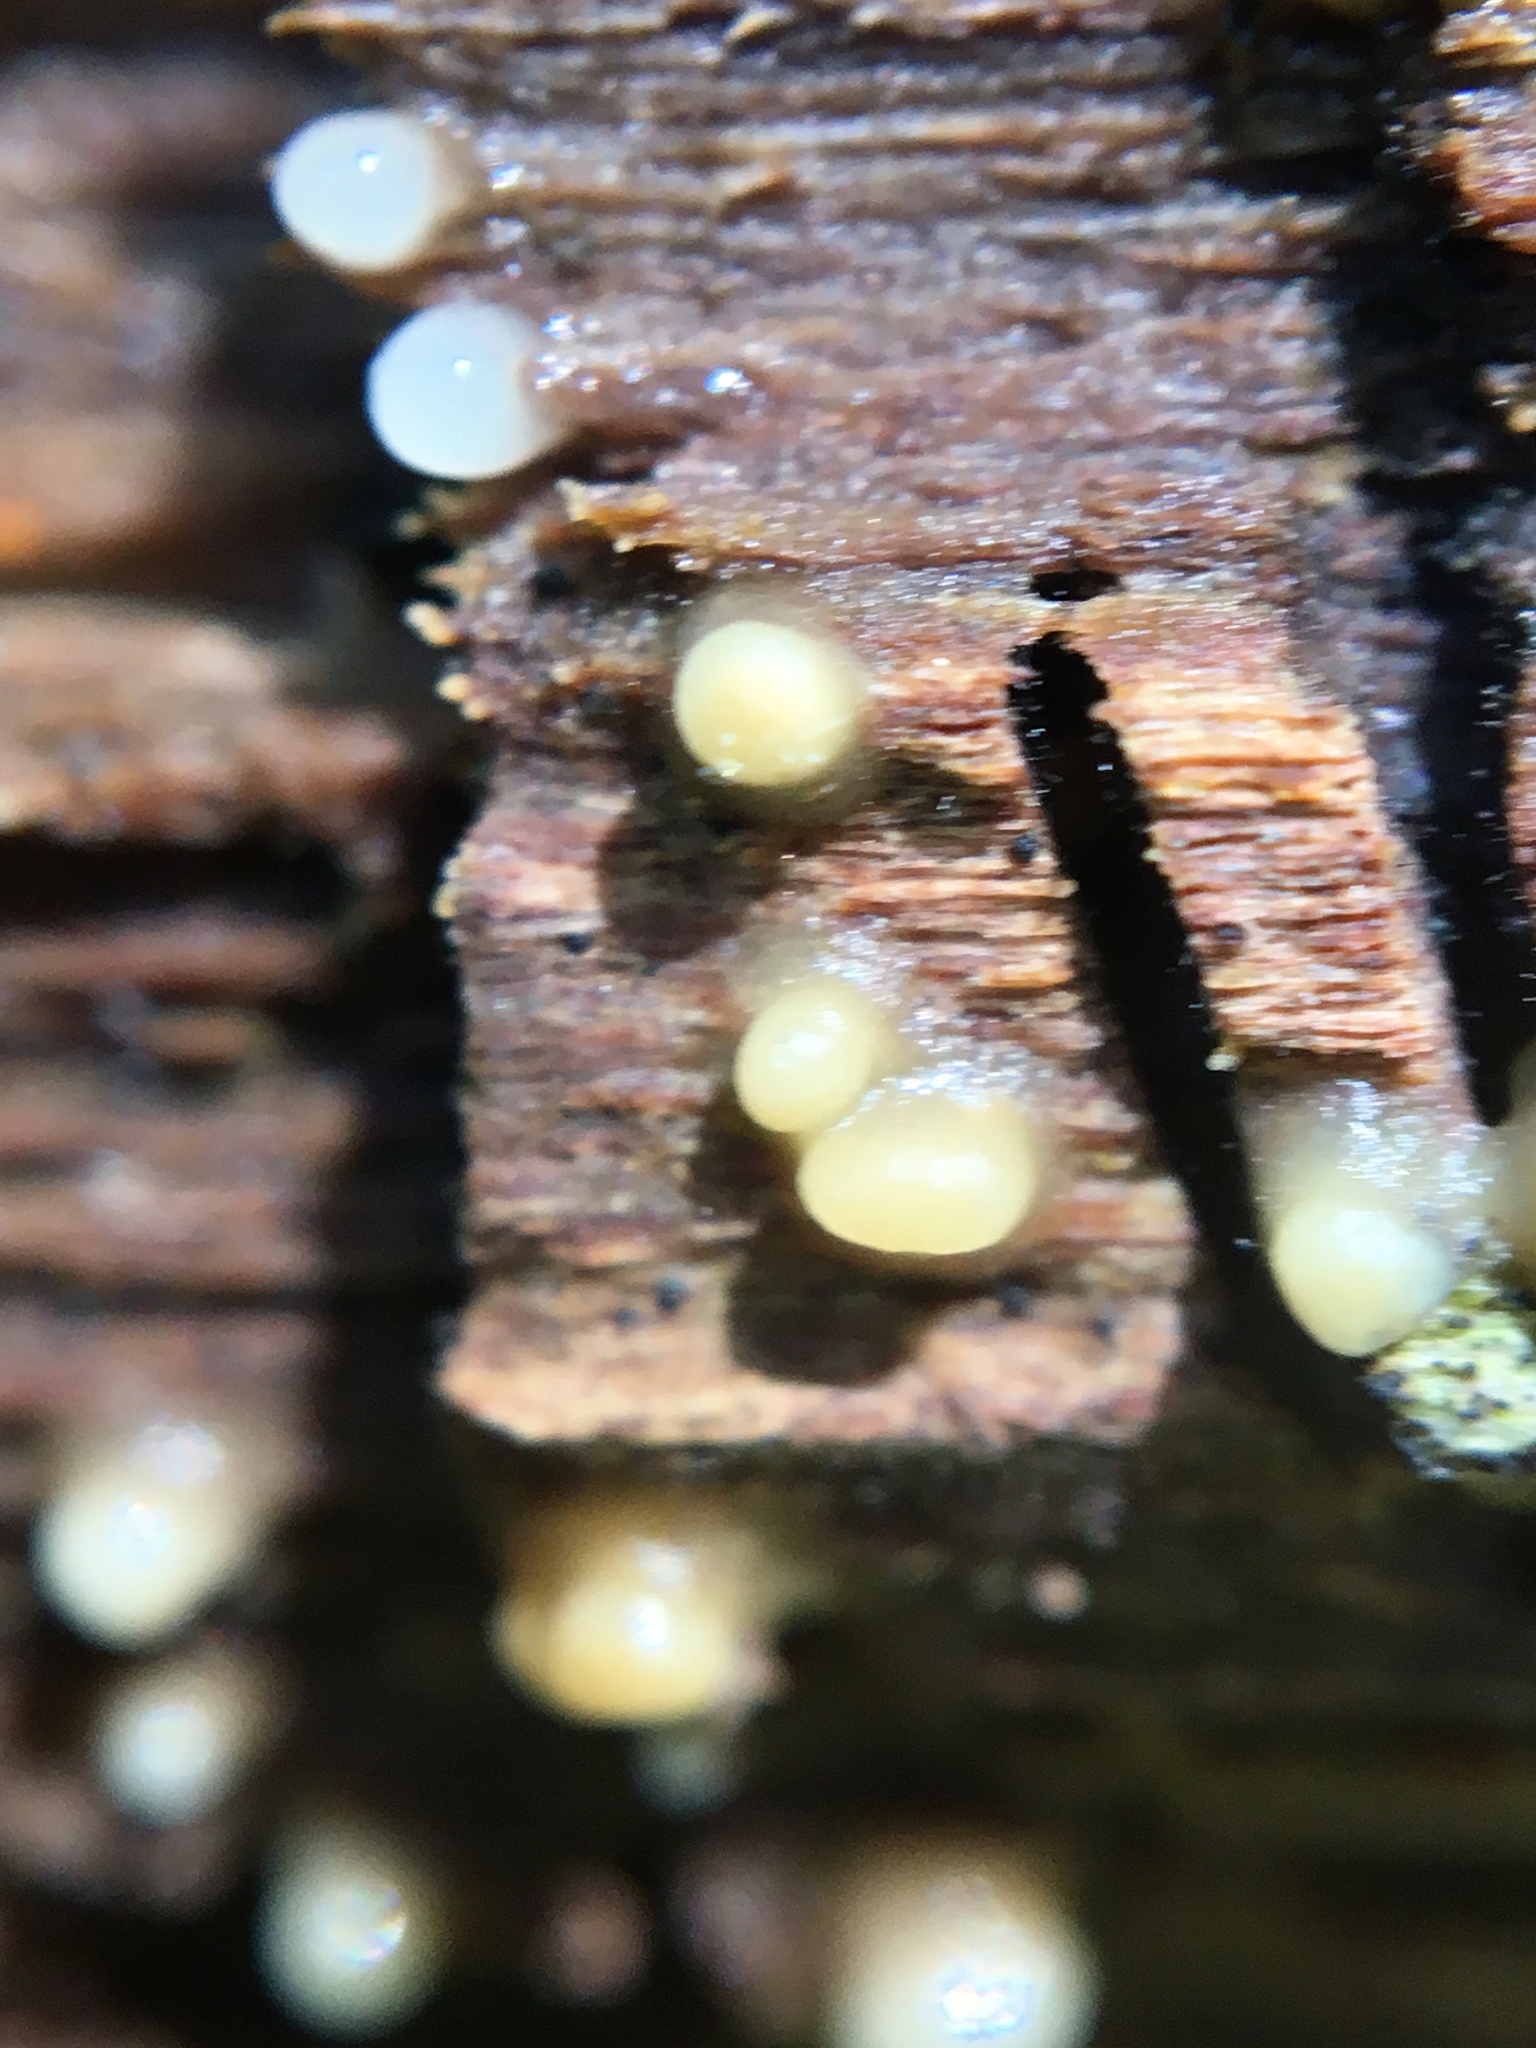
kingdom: Fungi
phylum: Basidiomycota
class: Atractiellomycetes
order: Atractiellales
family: Phleogenaceae
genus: Helicogloea
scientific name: Helicogloea compressa
